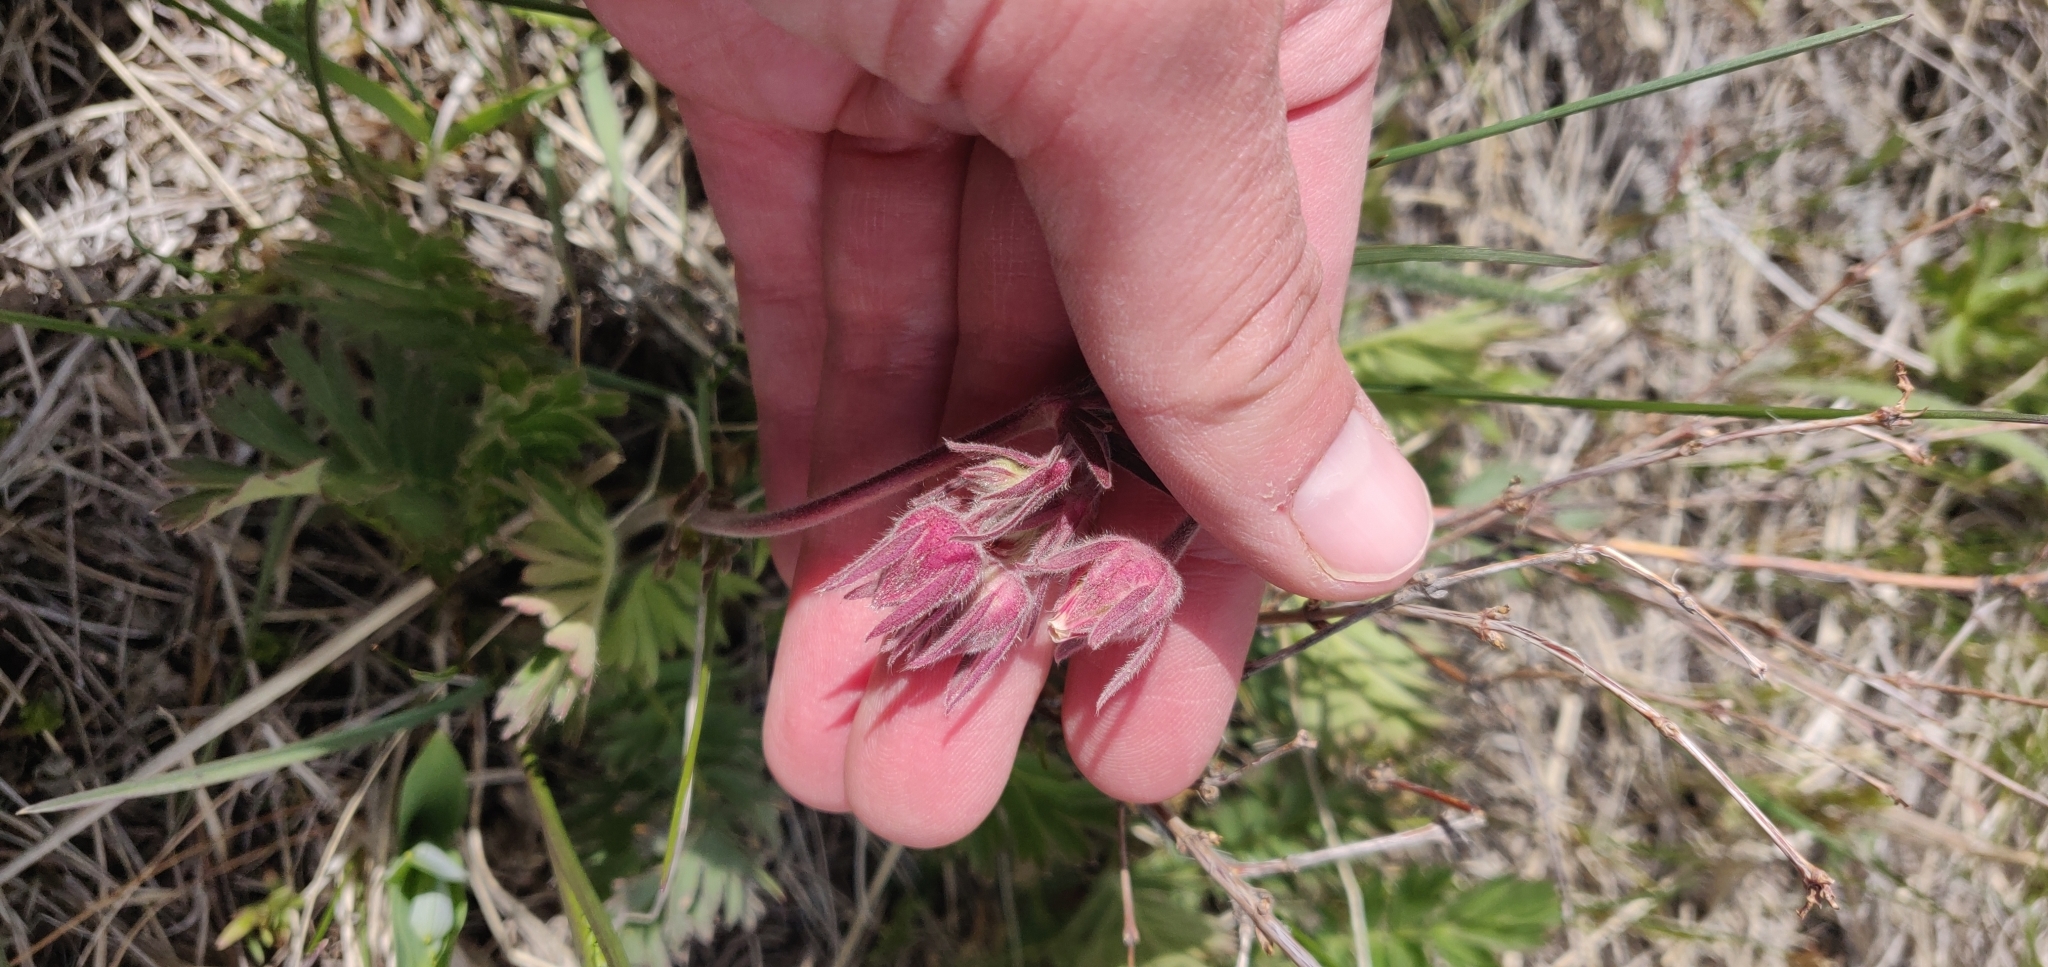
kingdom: Plantae
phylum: Tracheophyta
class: Magnoliopsida
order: Rosales
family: Rosaceae
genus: Geum
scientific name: Geum triflorum
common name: Old man's whiskers
